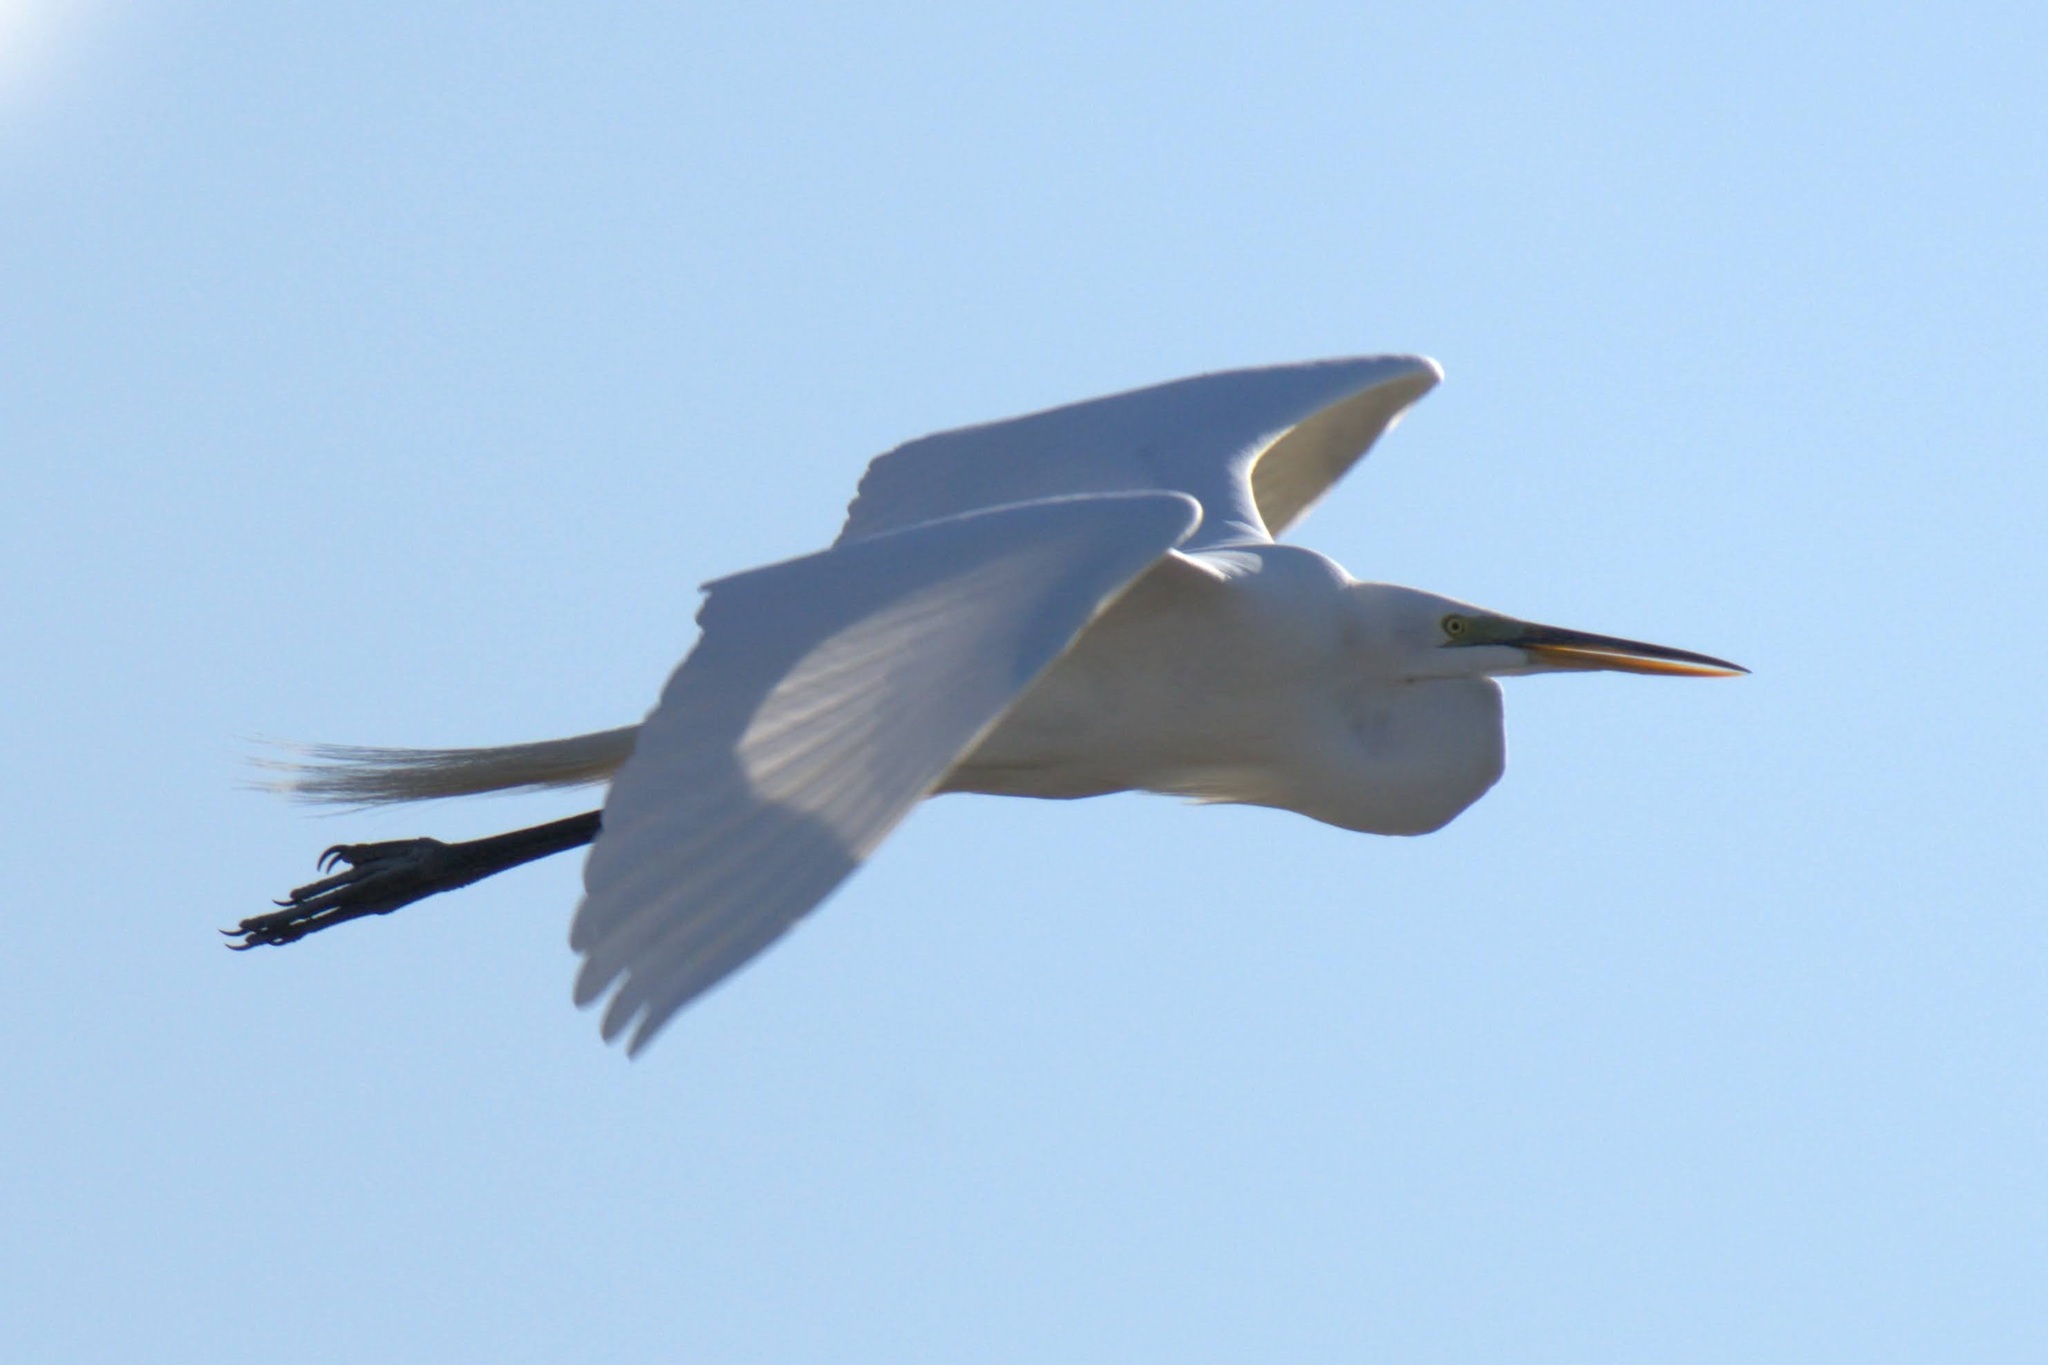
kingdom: Animalia
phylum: Chordata
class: Aves
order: Pelecaniformes
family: Ardeidae
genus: Ardea
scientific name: Ardea alba
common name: Great egret
